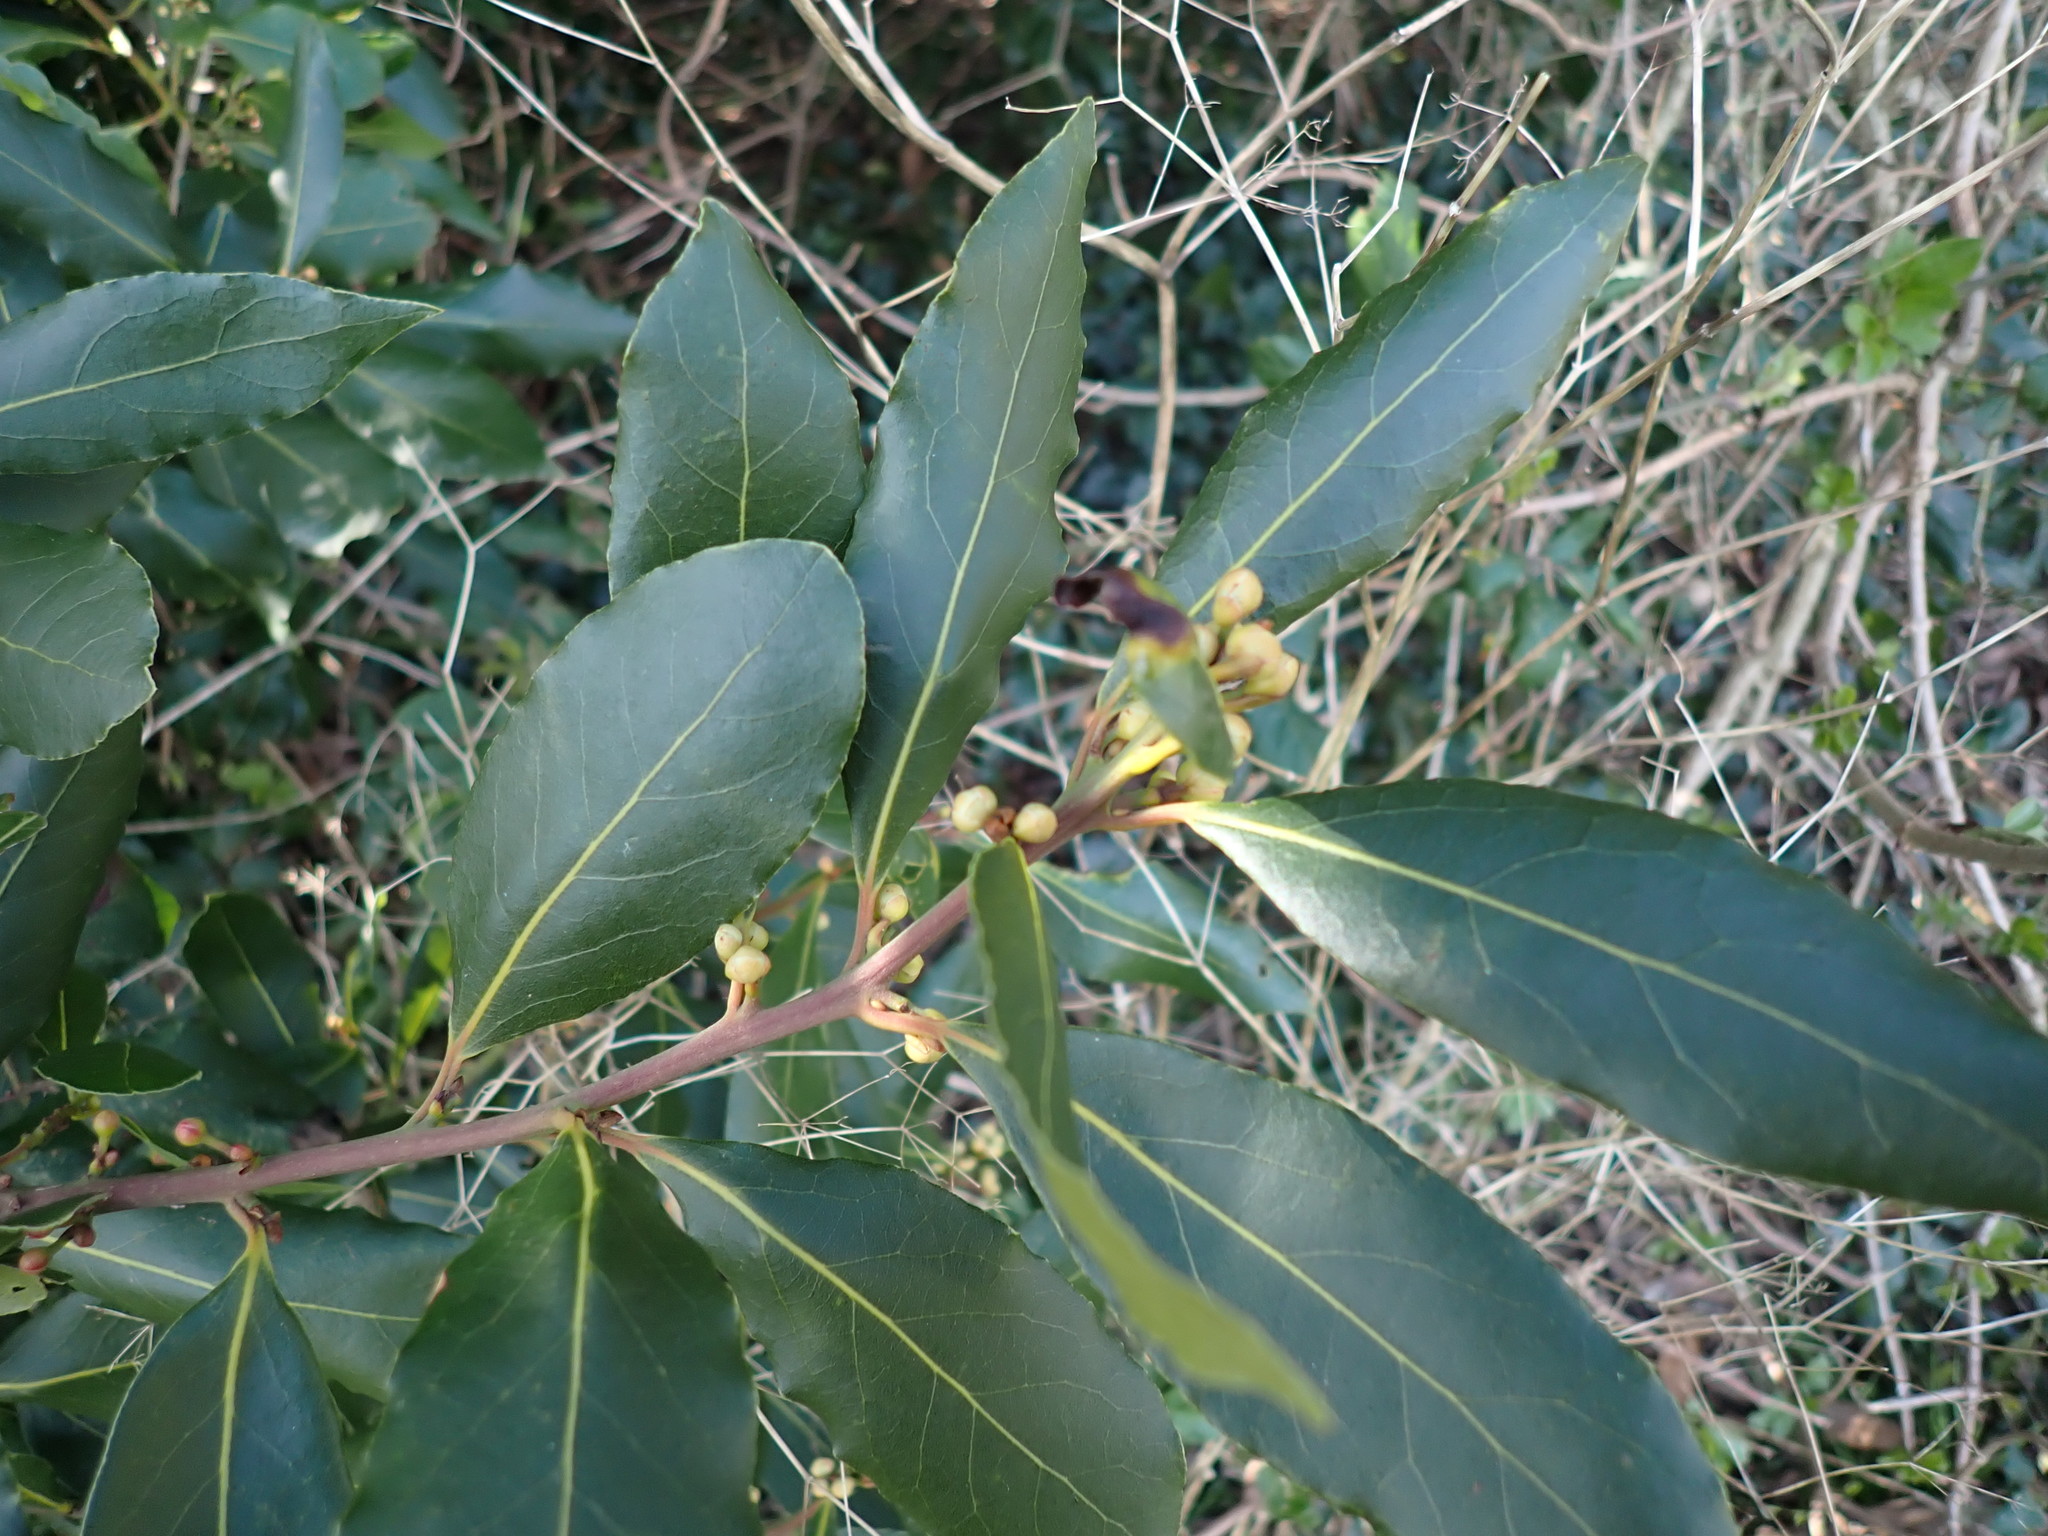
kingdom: Plantae
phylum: Tracheophyta
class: Magnoliopsida
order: Laurales
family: Lauraceae
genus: Laurus
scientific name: Laurus nobilis
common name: Bay
